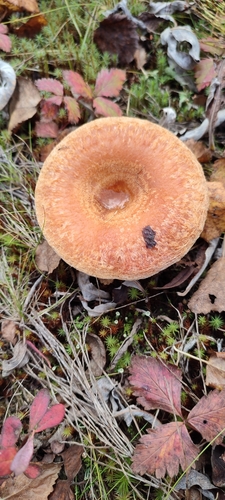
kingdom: Fungi
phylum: Basidiomycota
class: Agaricomycetes
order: Russulales
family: Russulaceae
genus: Lactarius
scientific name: Lactarius torminosus
